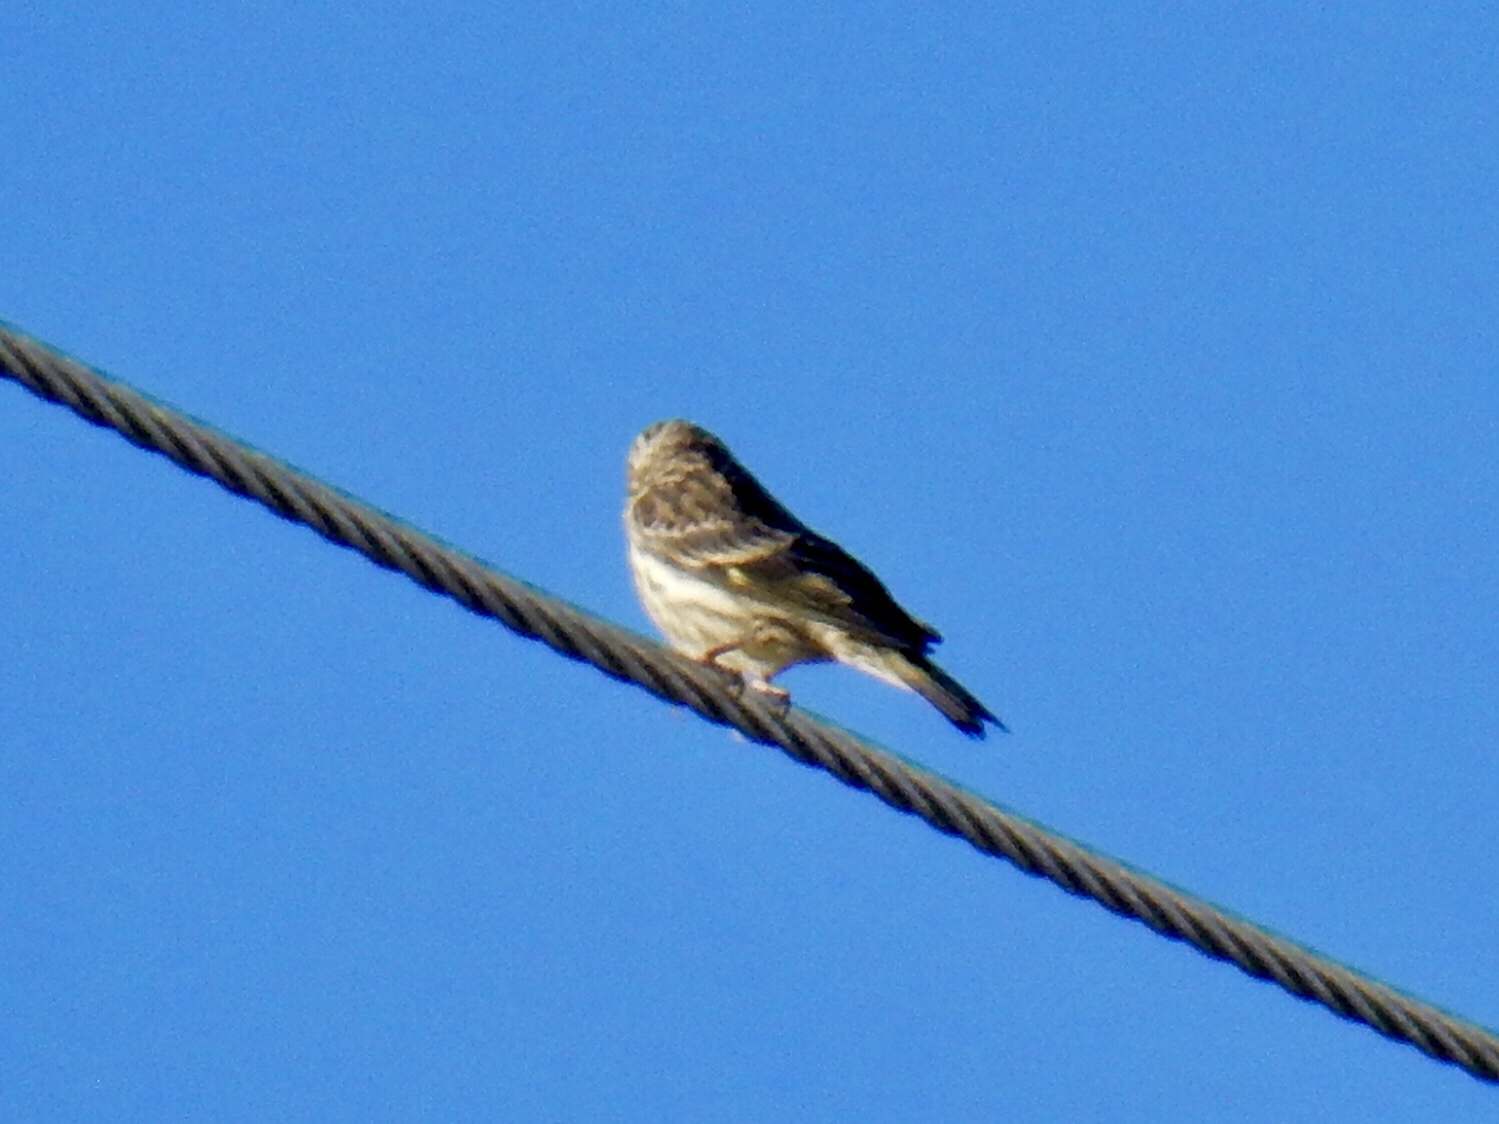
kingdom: Animalia
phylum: Chordata
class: Aves
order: Passeriformes
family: Fringillidae
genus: Spinus
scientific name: Spinus pinus
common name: Pine siskin
